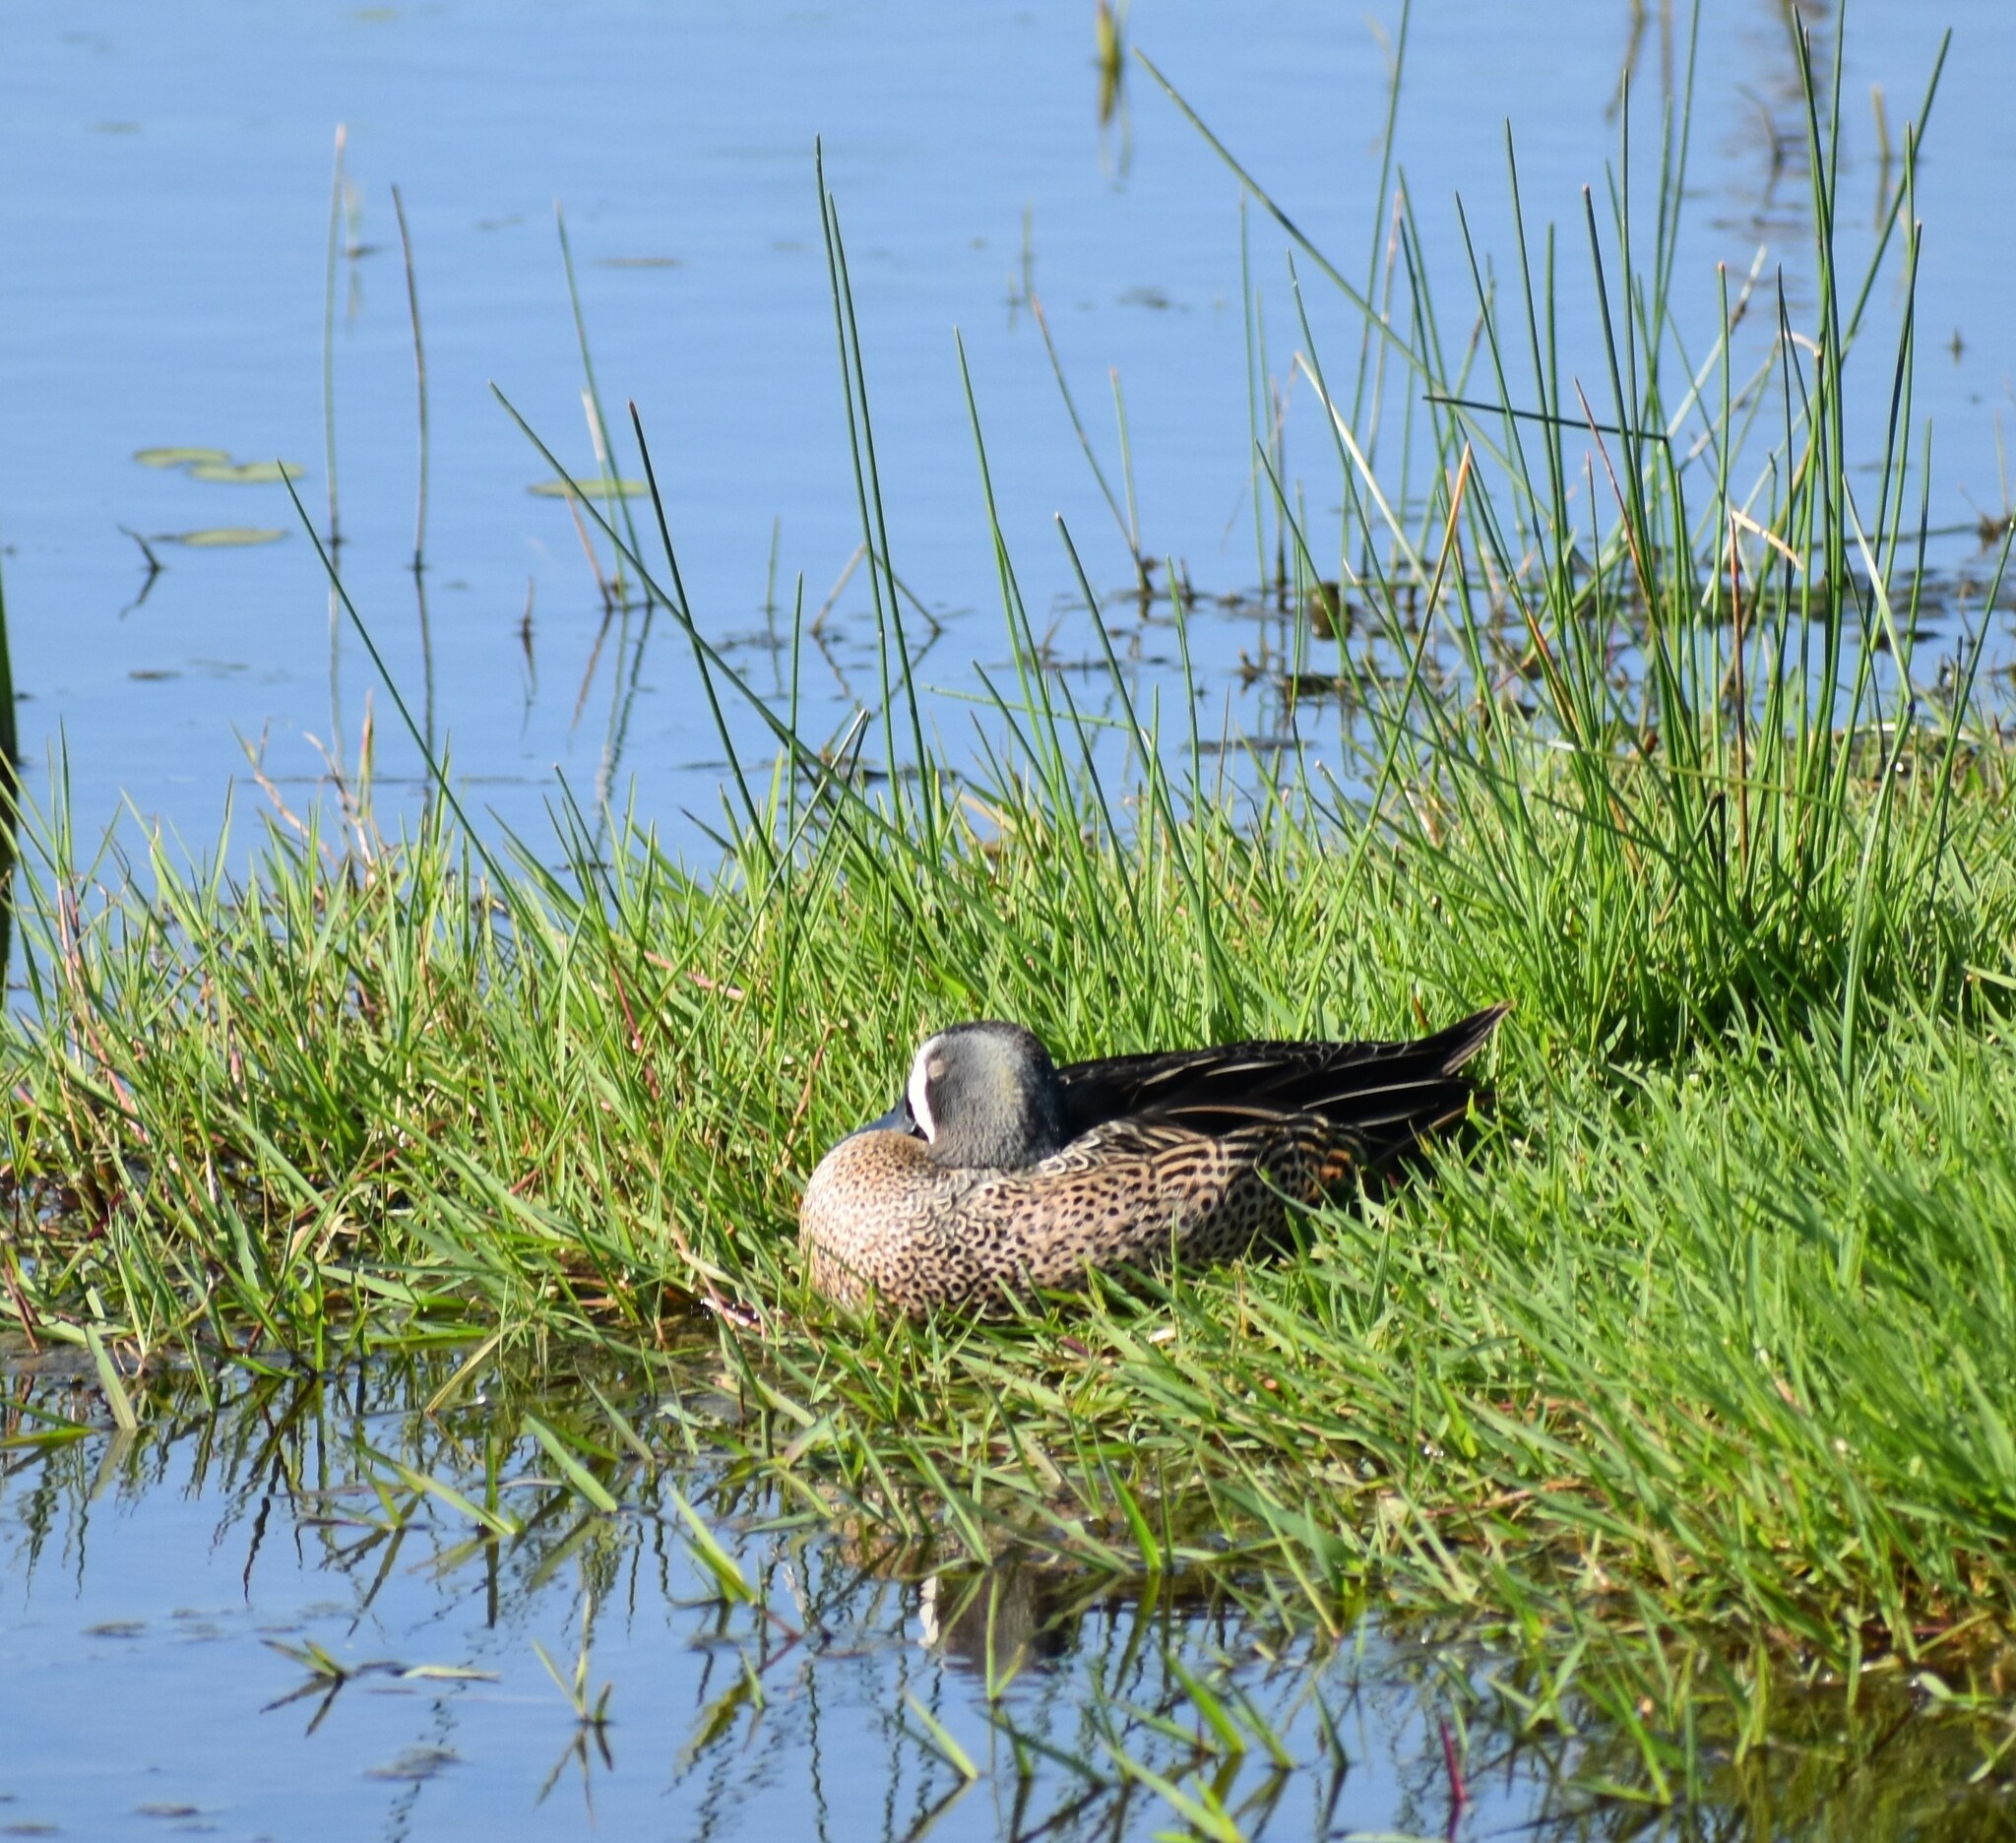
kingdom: Animalia
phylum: Chordata
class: Aves
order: Anseriformes
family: Anatidae
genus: Spatula
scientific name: Spatula discors
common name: Blue-winged teal
